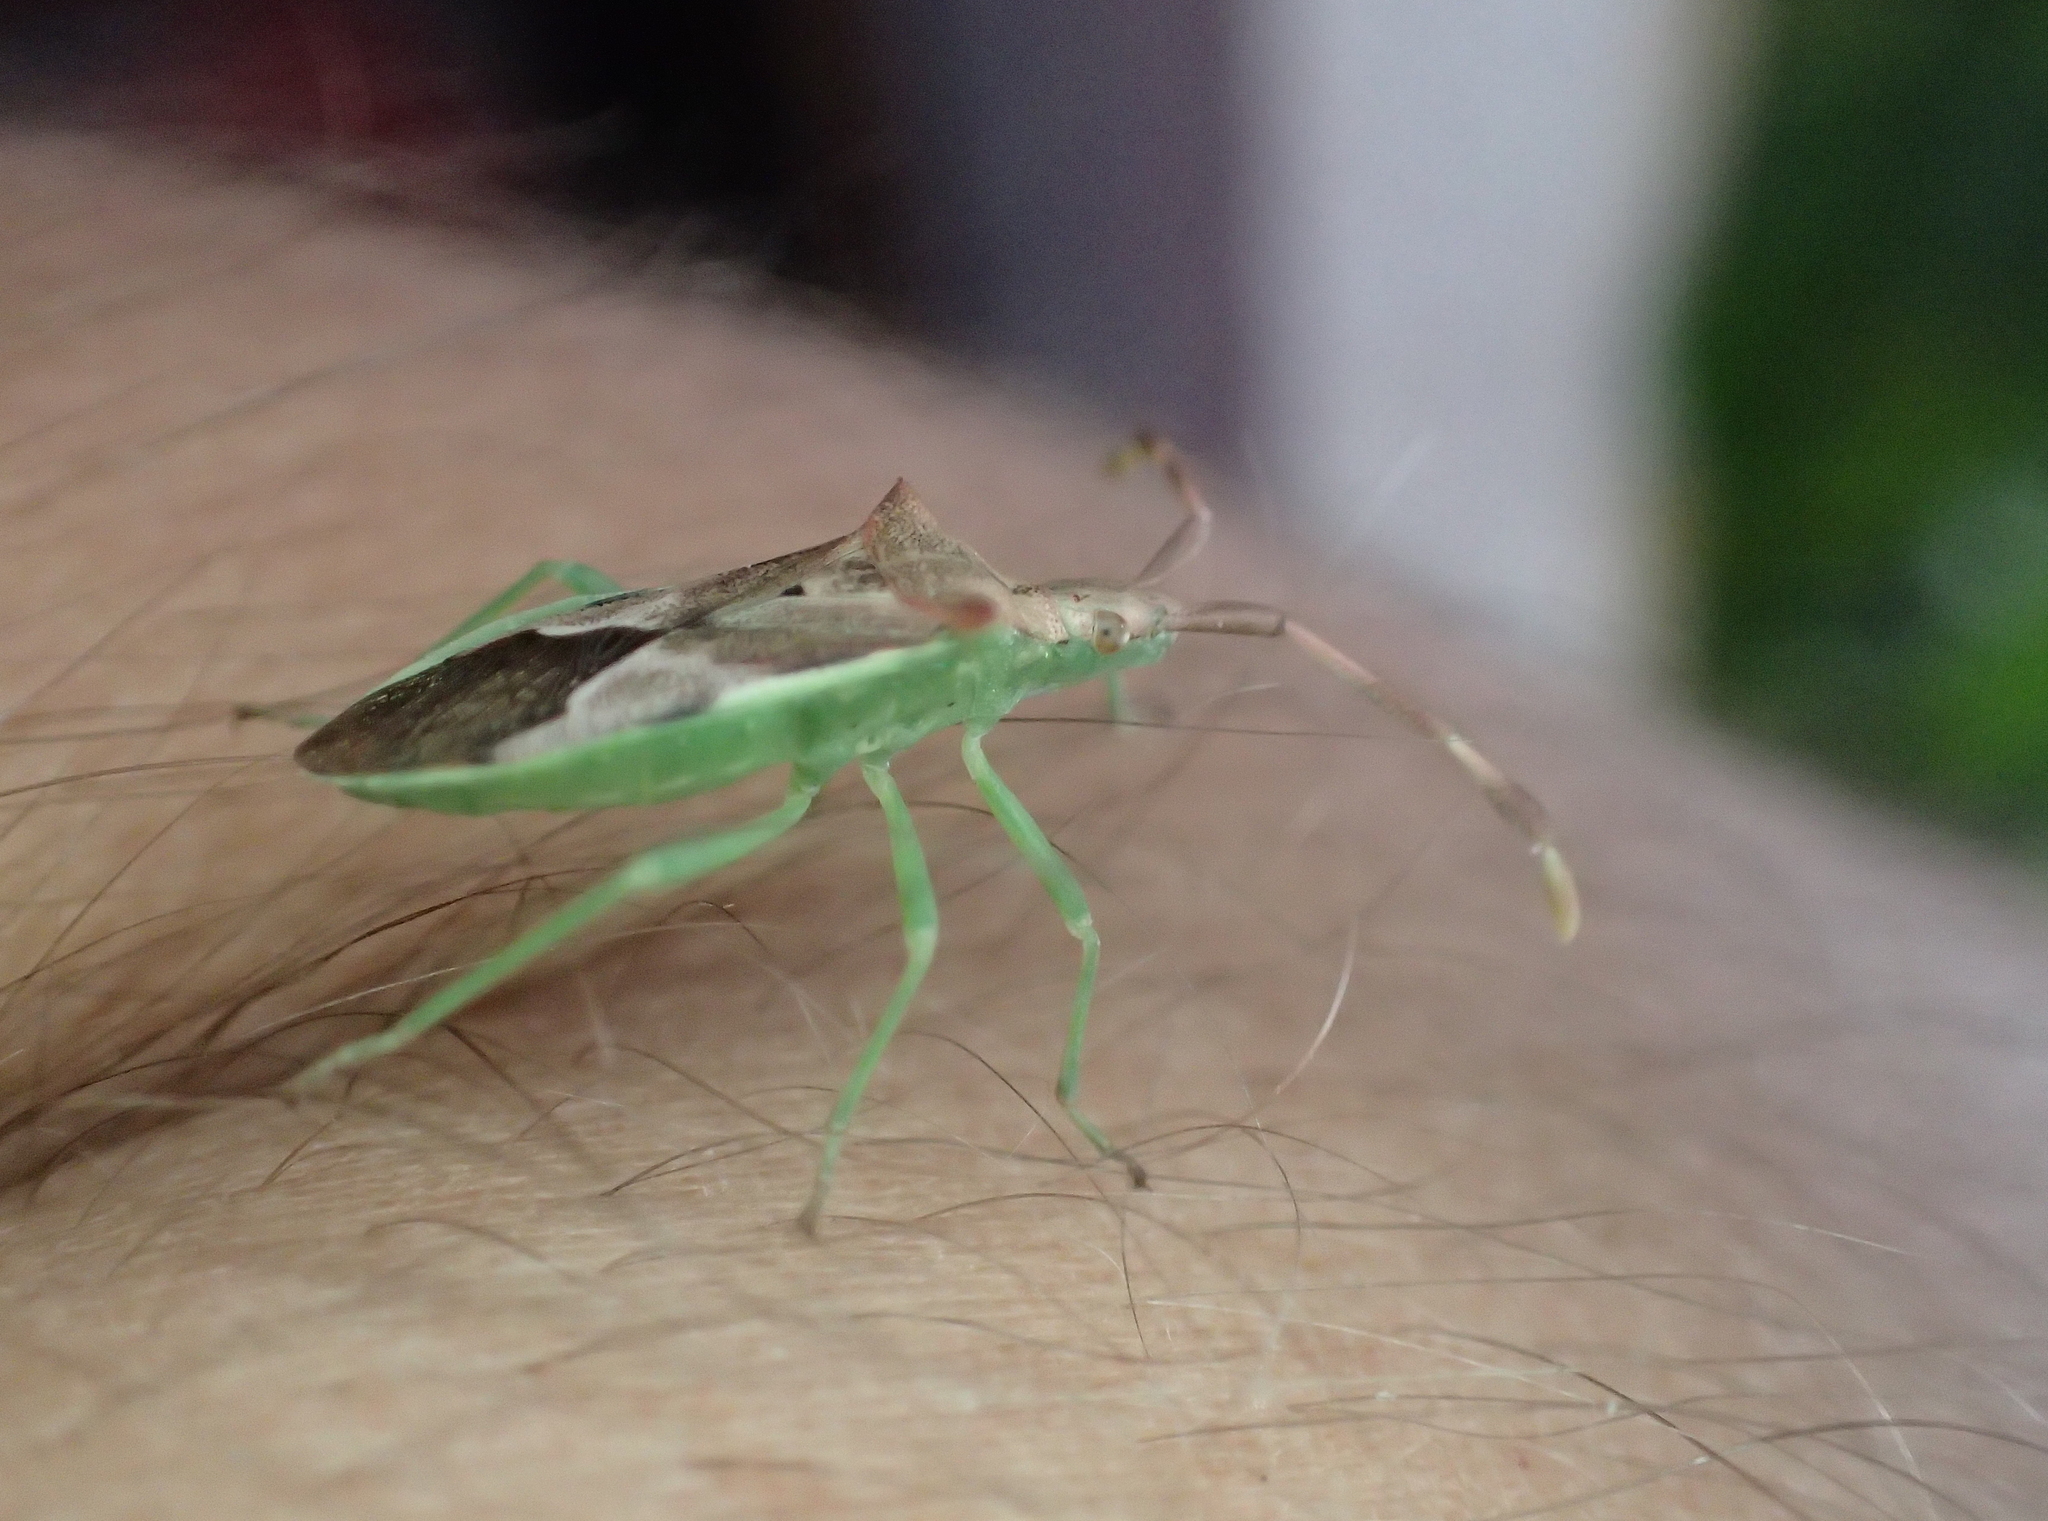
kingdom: Animalia
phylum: Arthropoda
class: Insecta
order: Hemiptera
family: Coreidae
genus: Gonocerus
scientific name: Gonocerus juniperi
